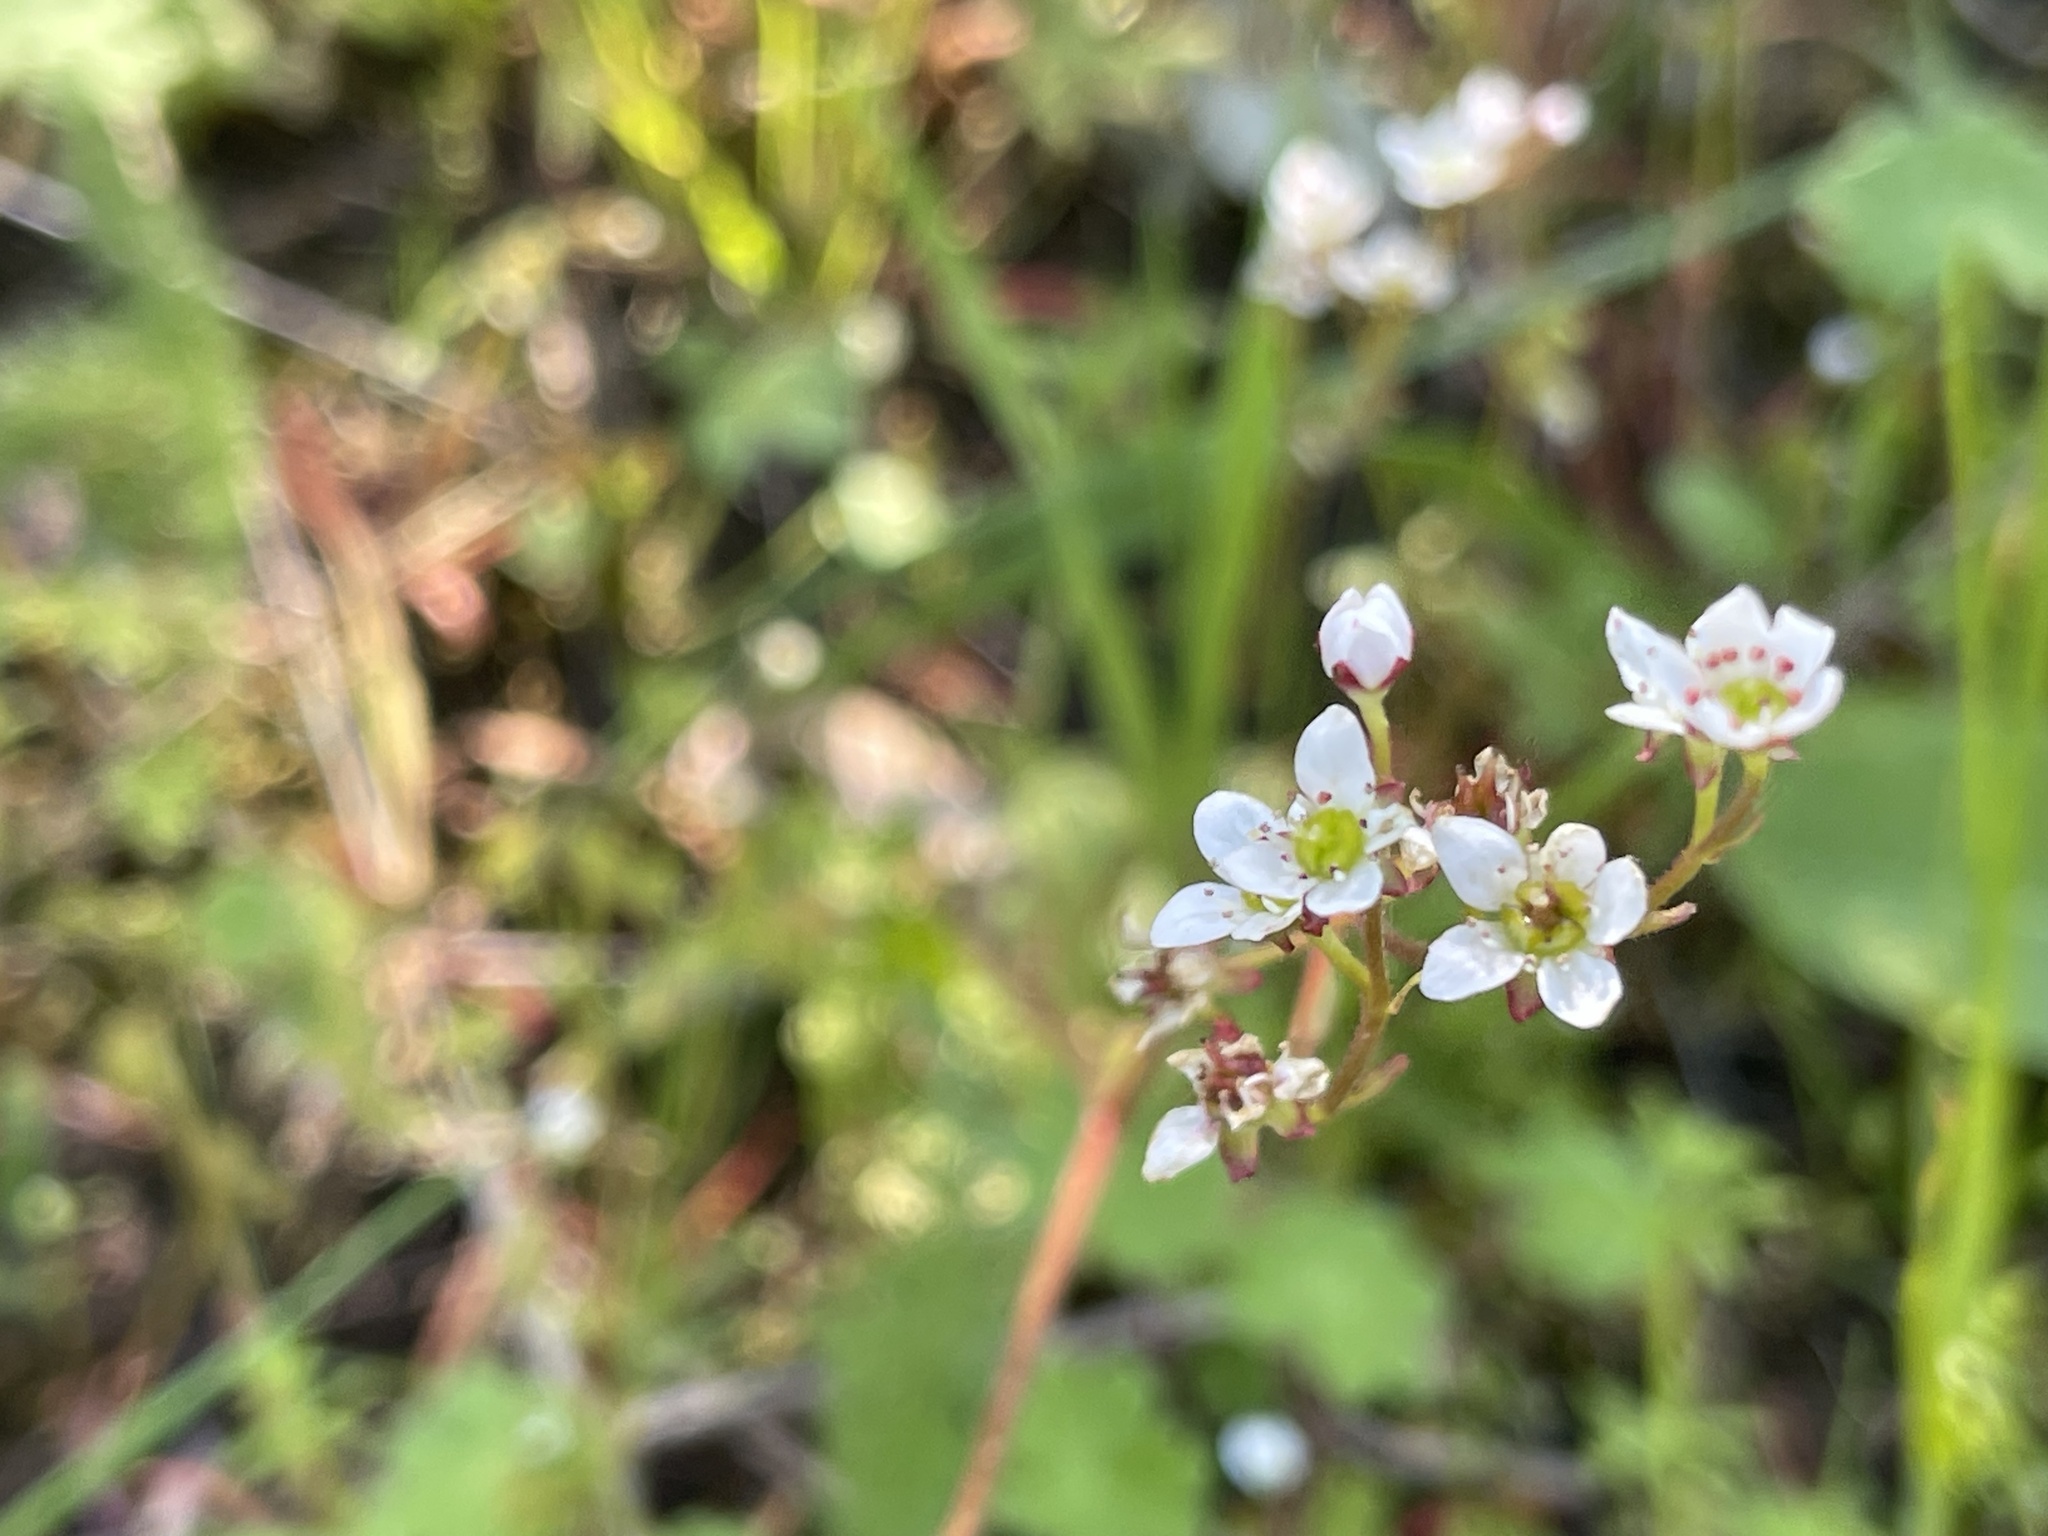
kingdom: Plantae
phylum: Tracheophyta
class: Magnoliopsida
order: Saxifragales
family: Saxifragaceae
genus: Micranthes
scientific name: Micranthes californica
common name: California saxifrage
